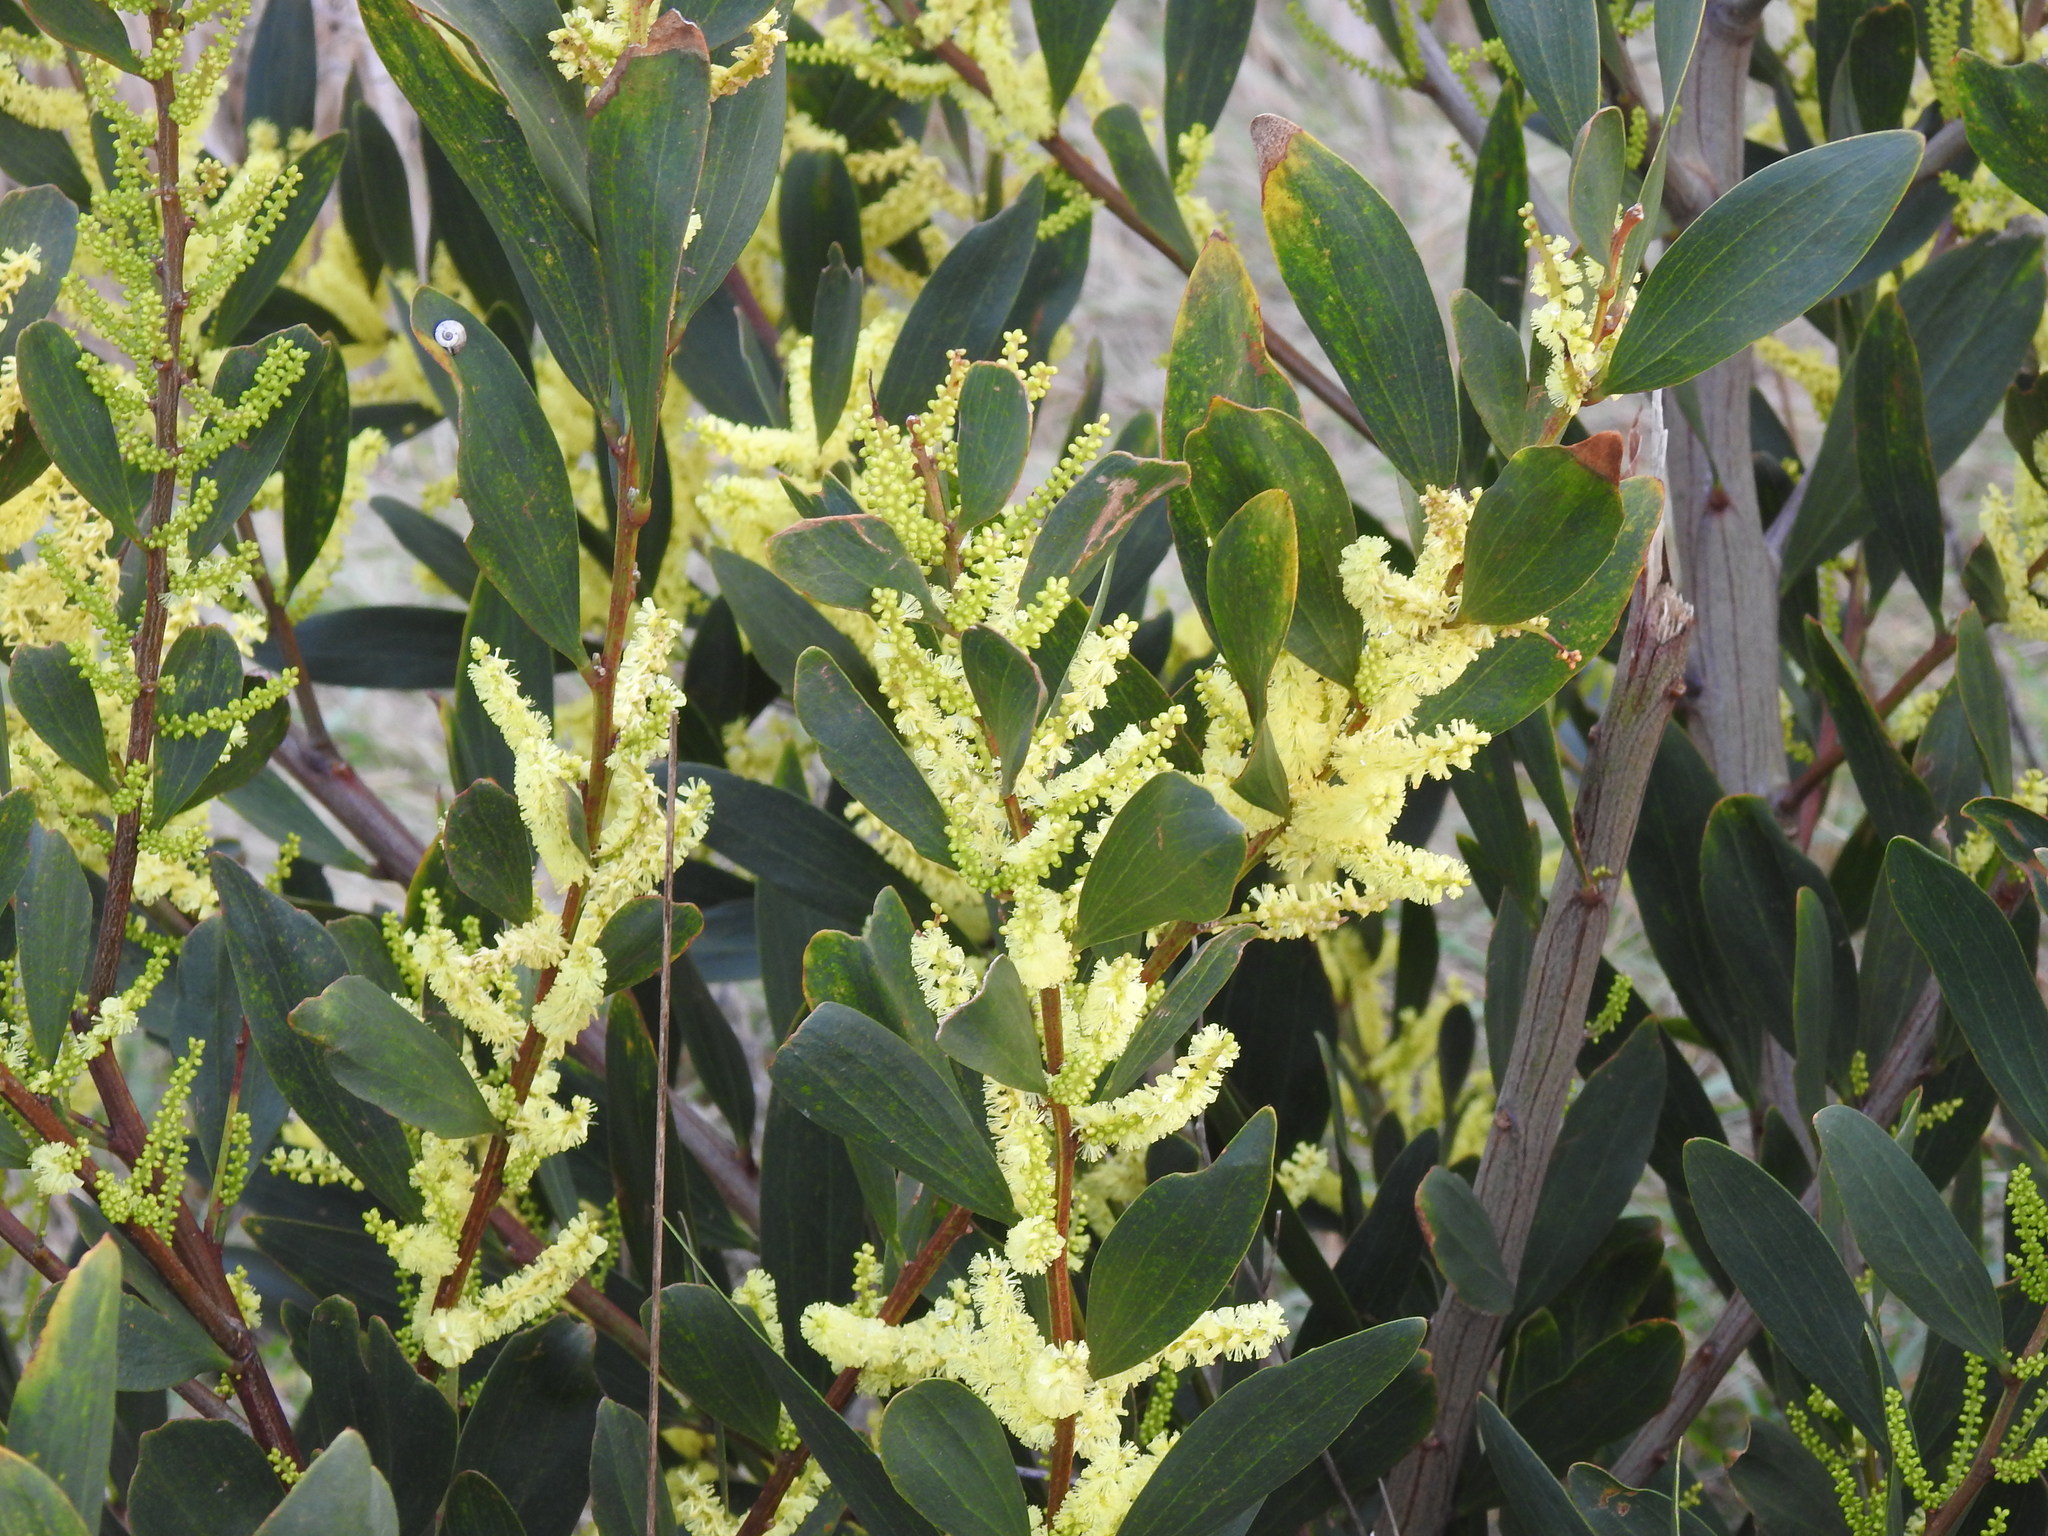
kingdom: Plantae
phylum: Tracheophyta
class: Magnoliopsida
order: Fabales
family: Fabaceae
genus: Acacia
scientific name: Acacia longifolia
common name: Sydney golden wattle
